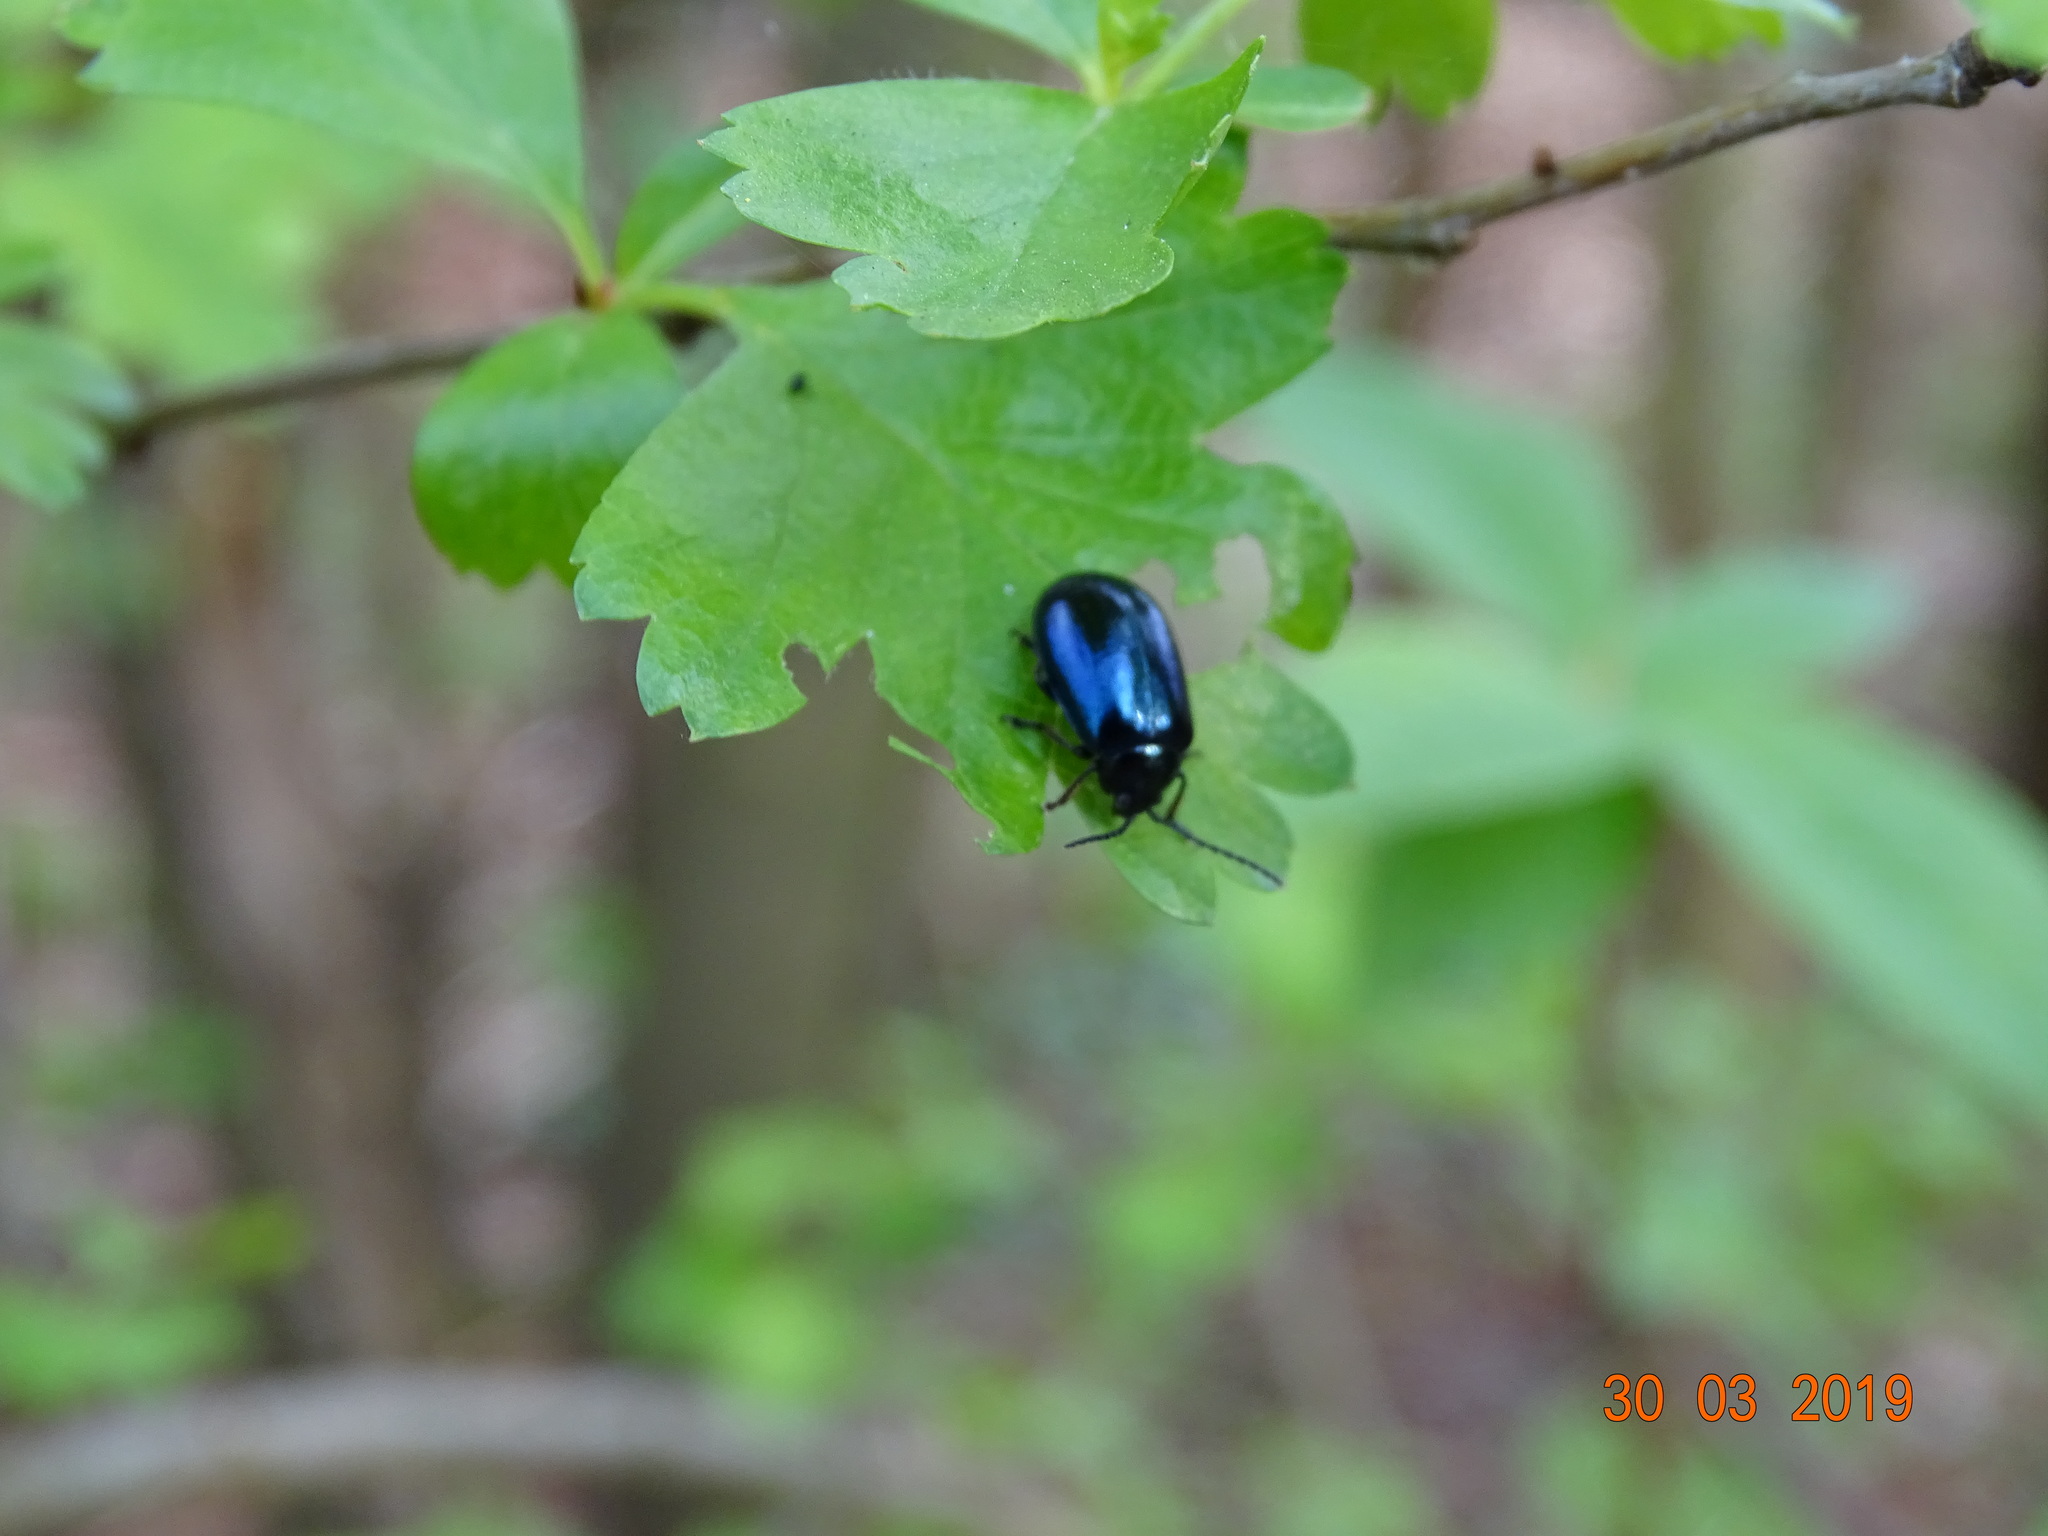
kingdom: Animalia
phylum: Arthropoda
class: Insecta
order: Coleoptera
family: Chrysomelidae
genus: Agelastica
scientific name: Agelastica alni
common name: Alder leaf beetle
